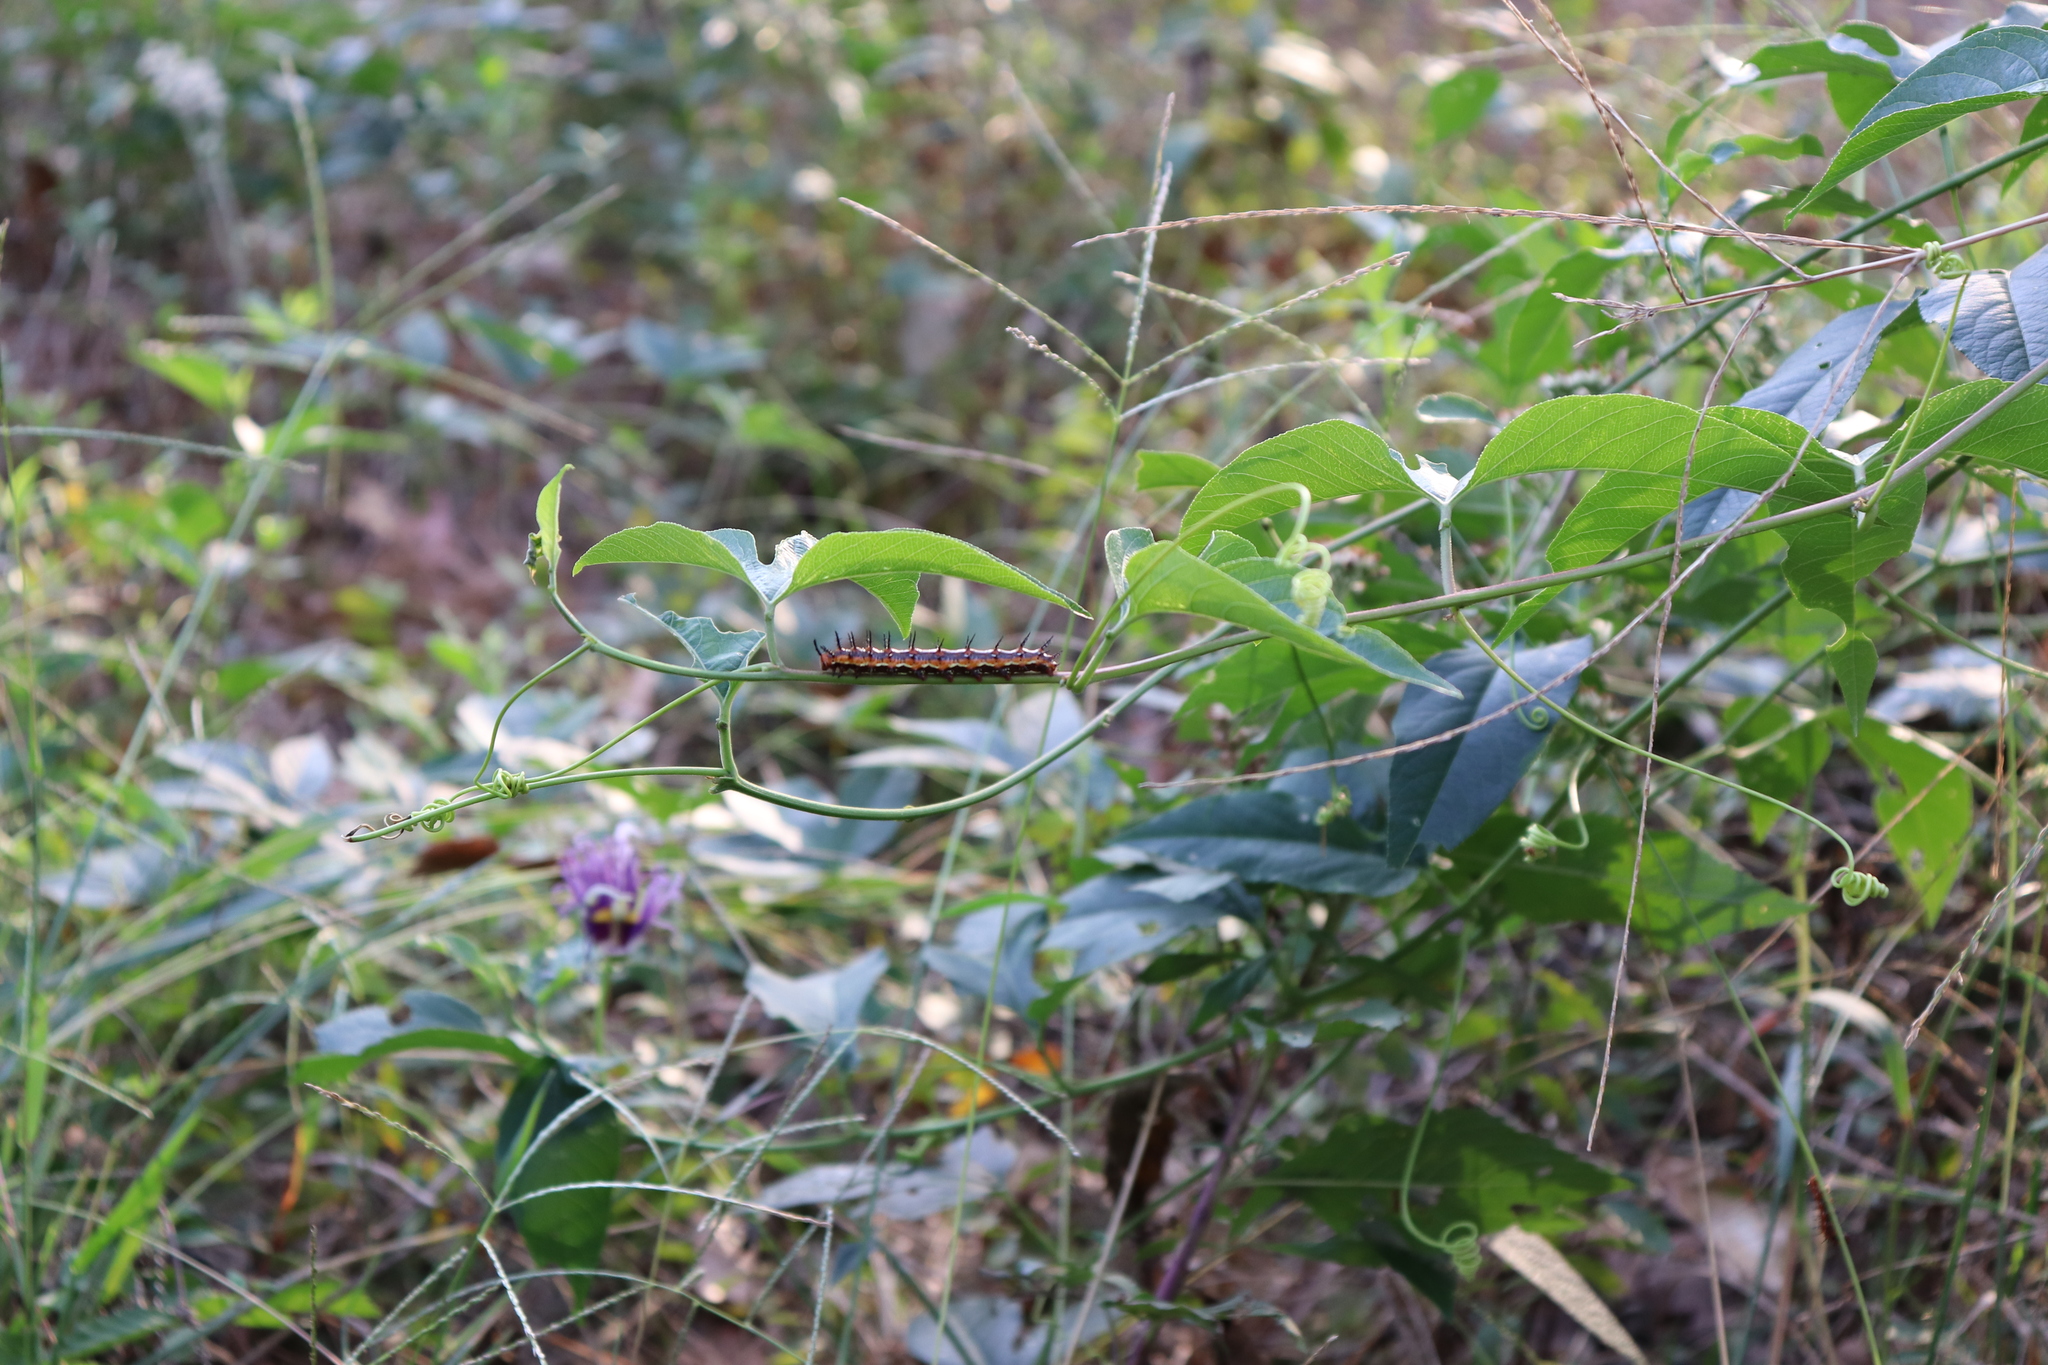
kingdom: Animalia
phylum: Arthropoda
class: Insecta
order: Lepidoptera
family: Nymphalidae
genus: Dione
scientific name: Dione vanillae
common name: Gulf fritillary
